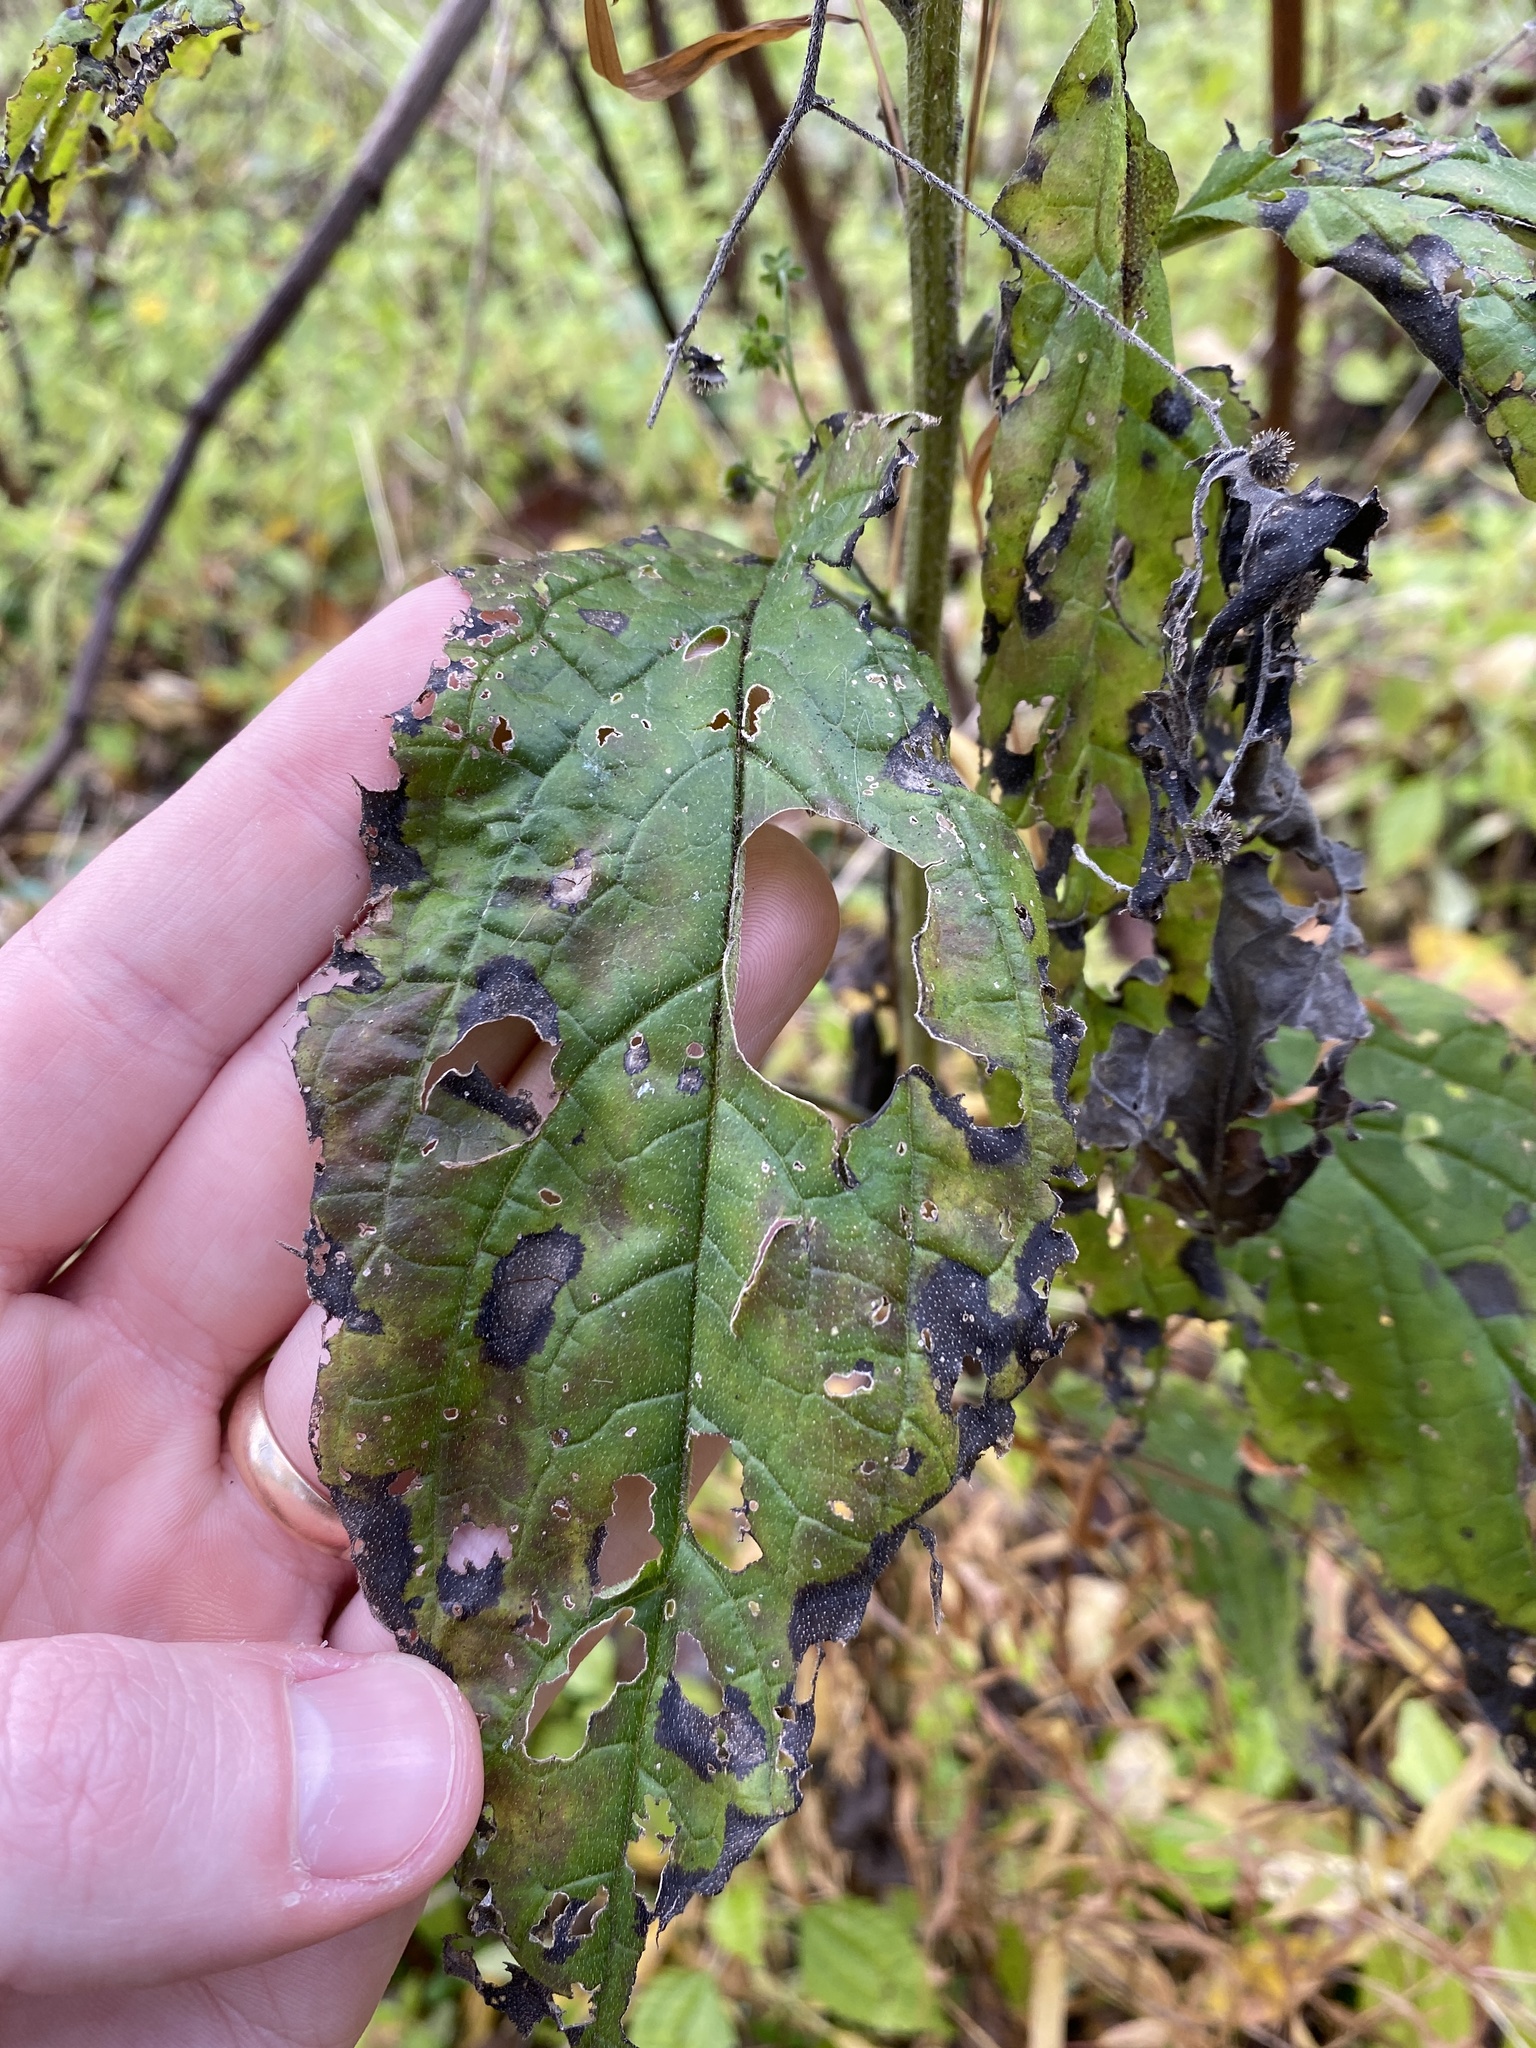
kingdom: Plantae
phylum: Tracheophyta
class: Magnoliopsida
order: Boraginales
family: Boraginaceae
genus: Hackelia
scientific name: Hackelia virginiana
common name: Beggar's-lice
